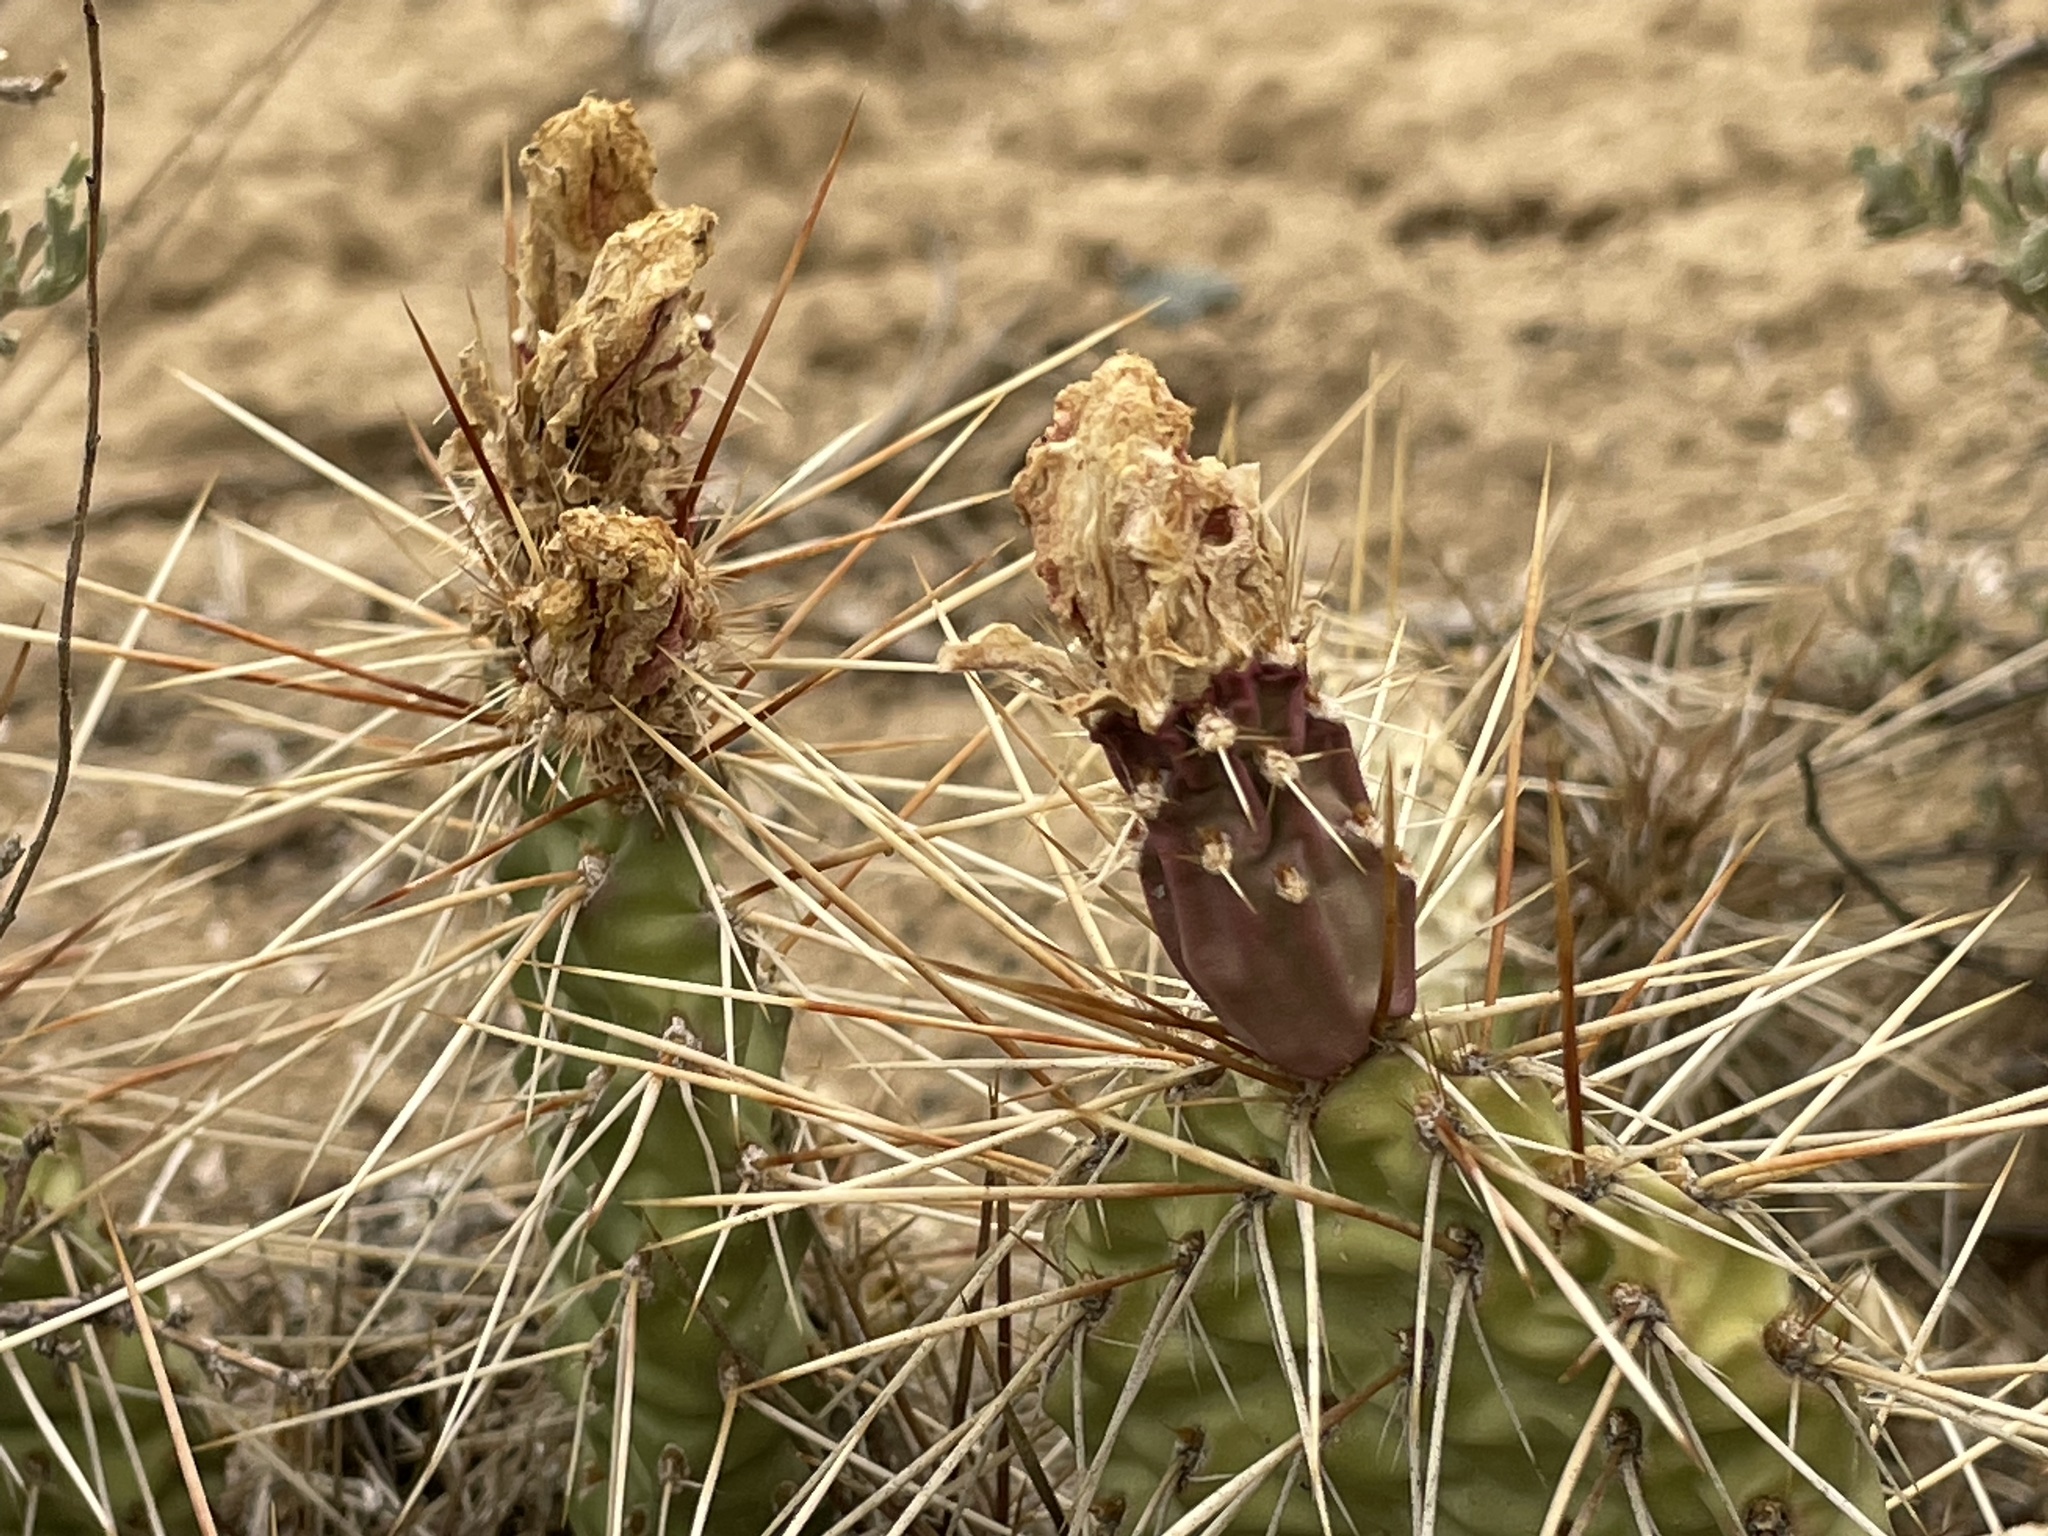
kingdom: Plantae
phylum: Tracheophyta
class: Magnoliopsida
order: Caryophyllales
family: Cactaceae
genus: Opuntia
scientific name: Opuntia polyacantha
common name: Plains prickly-pear
